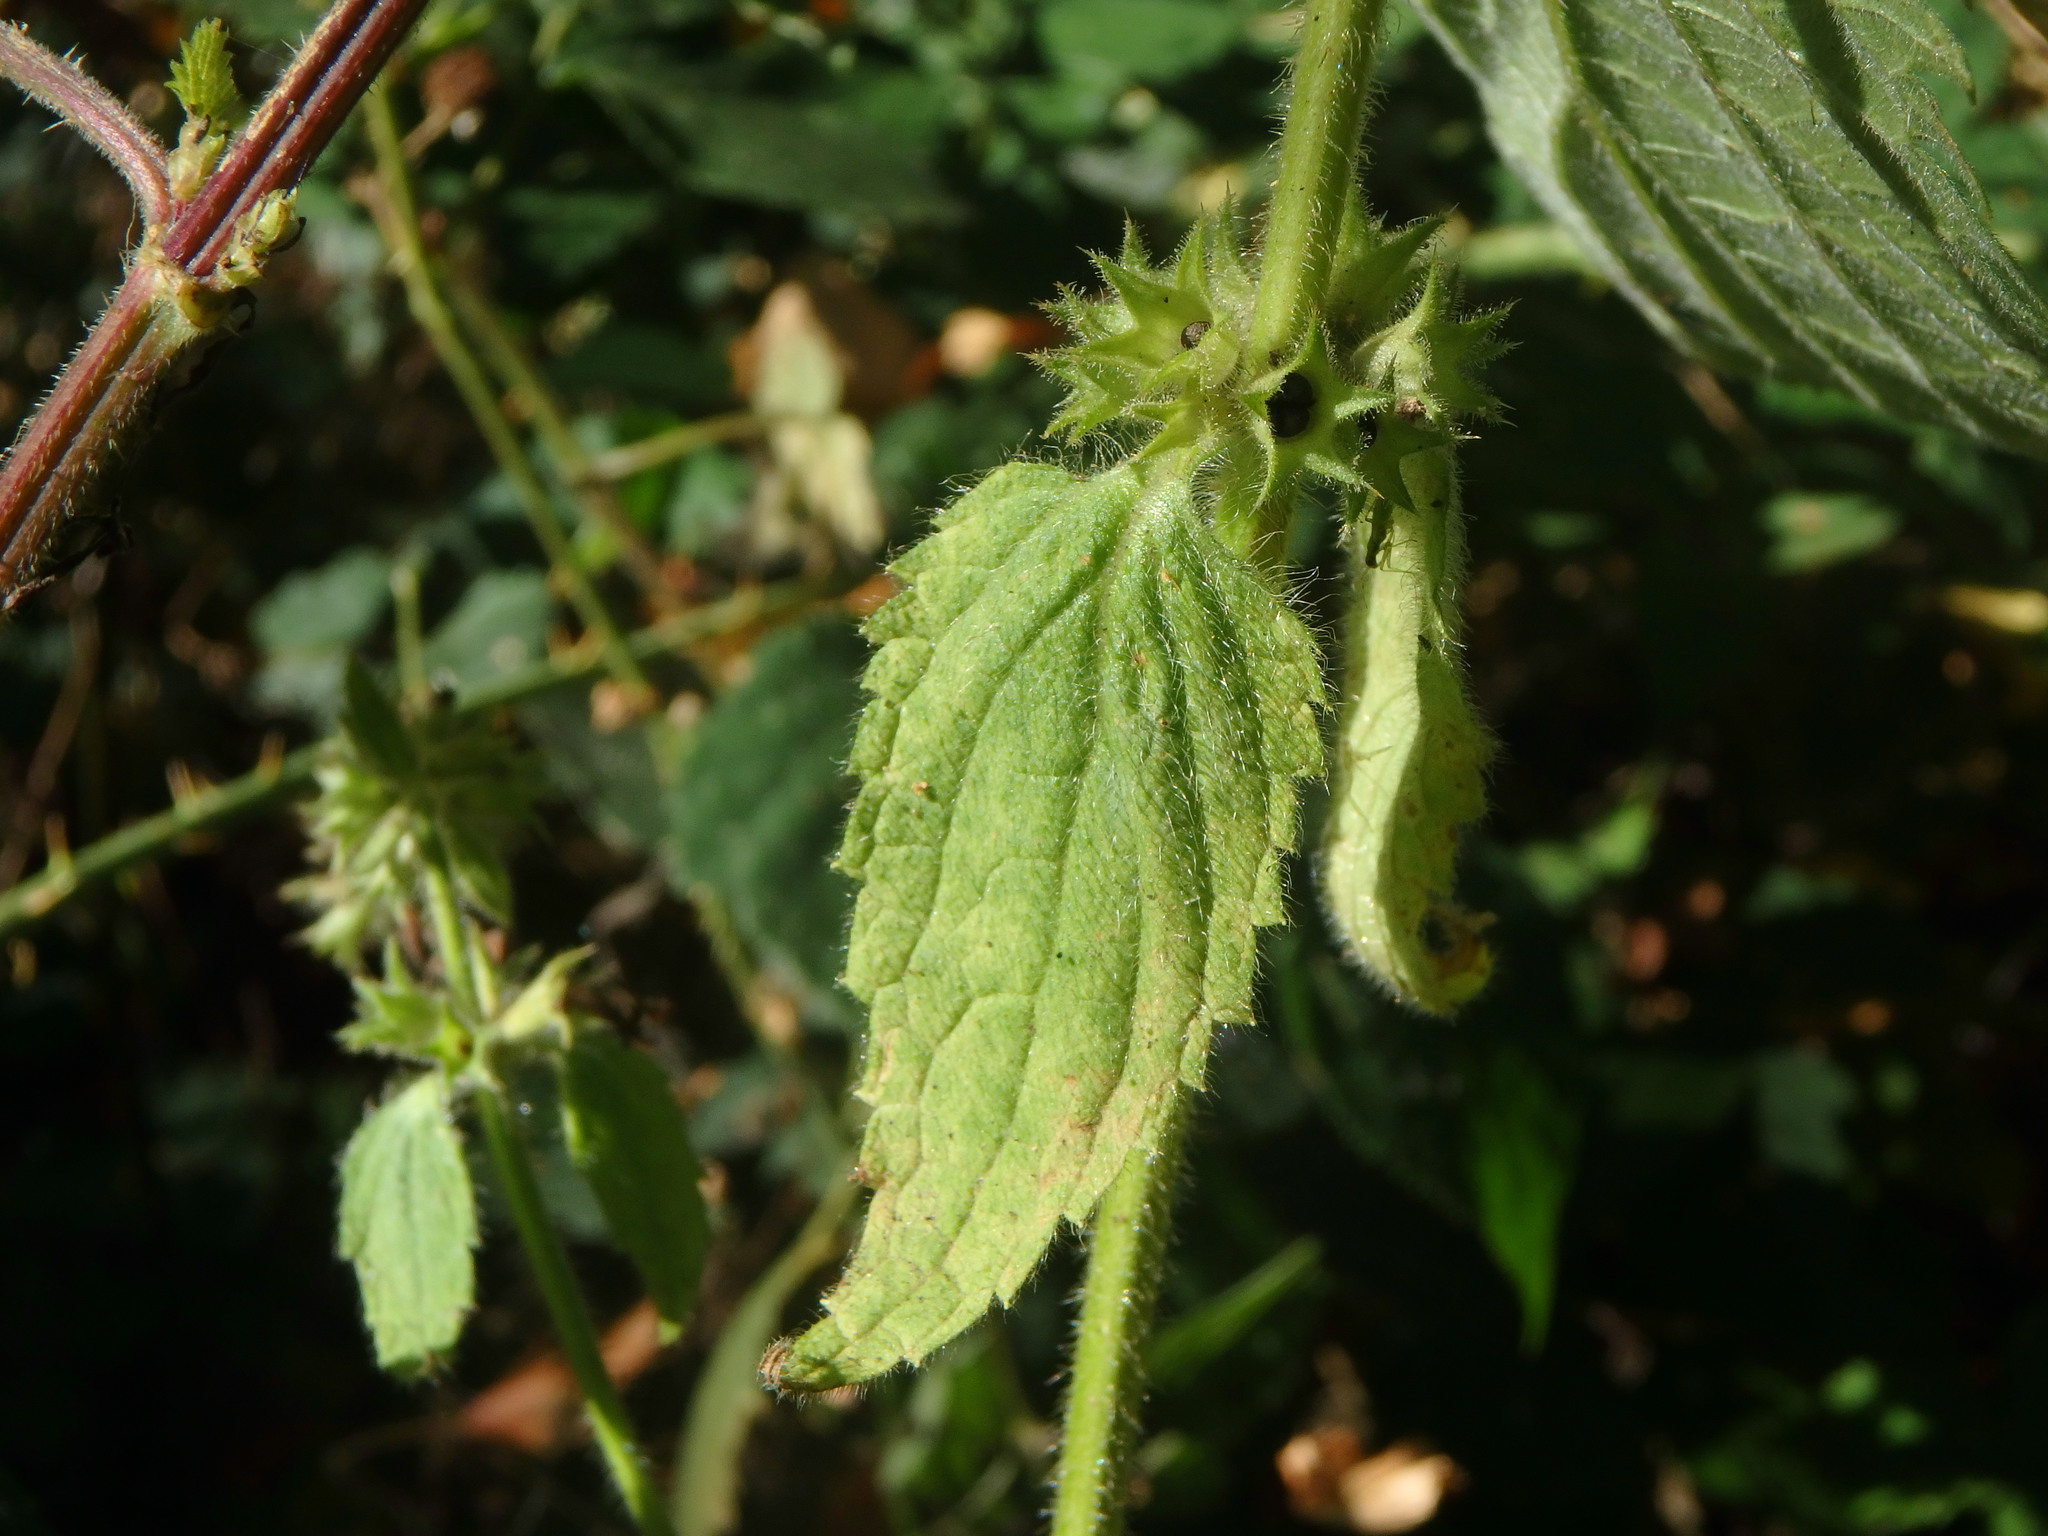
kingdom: Plantae
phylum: Tracheophyta
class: Magnoliopsida
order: Lamiales
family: Lamiaceae
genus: Stachys
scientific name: Stachys sylvatica
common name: Hedge woundwort
